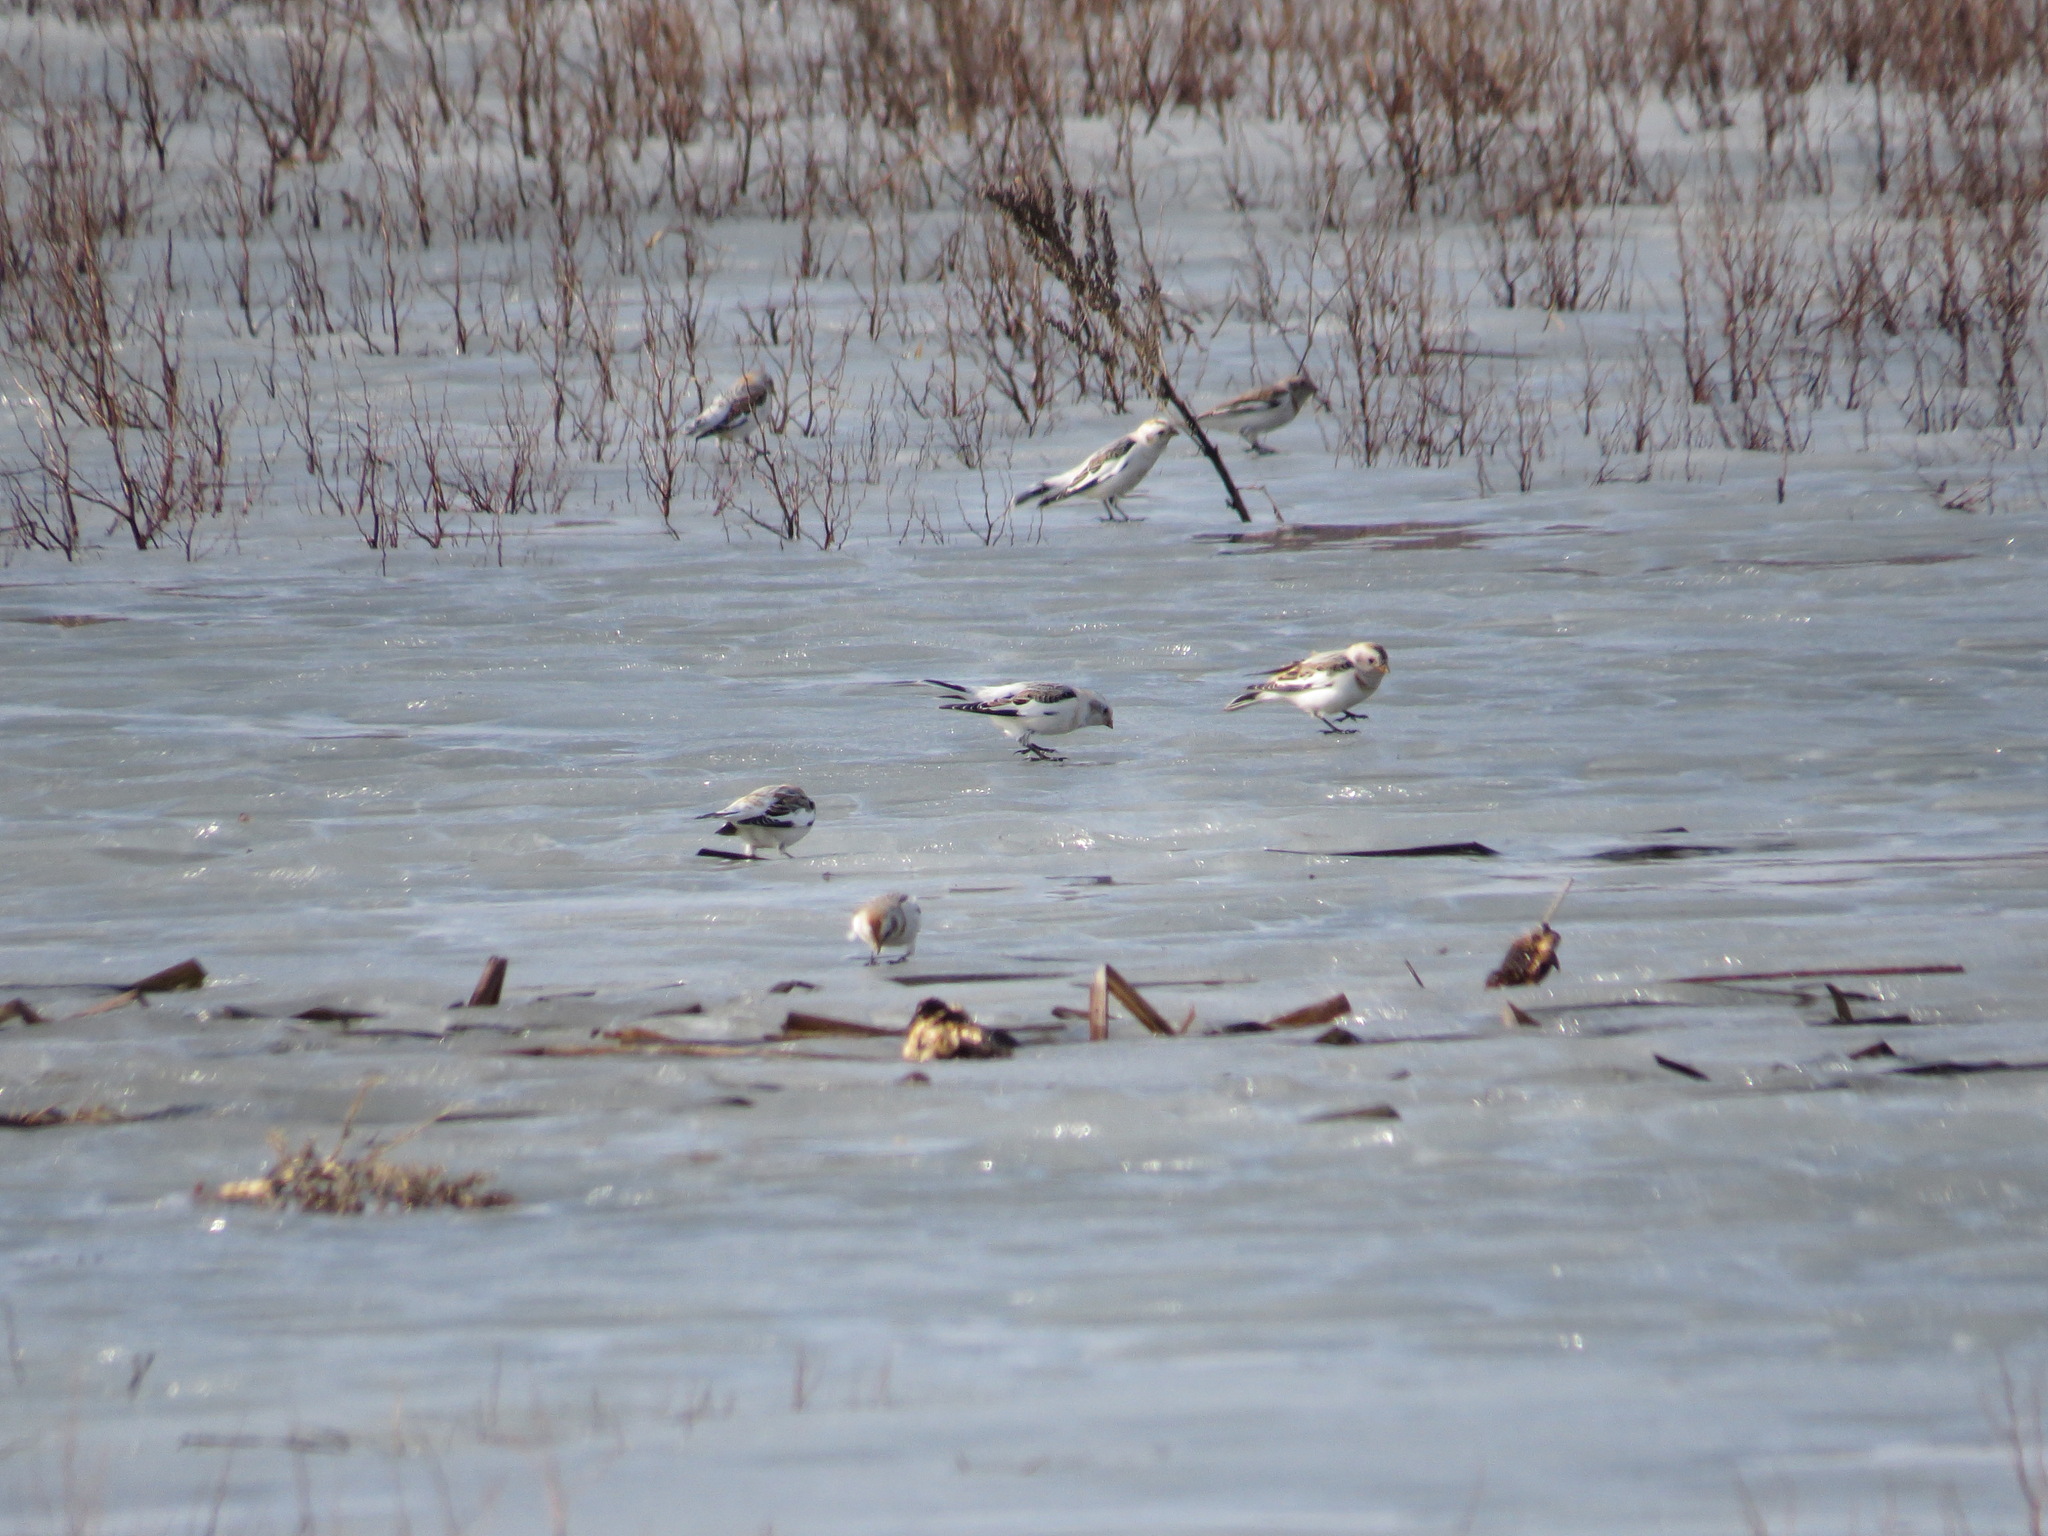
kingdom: Animalia
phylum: Chordata
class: Aves
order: Passeriformes
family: Calcariidae
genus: Plectrophenax
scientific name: Plectrophenax nivalis
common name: Snow bunting
